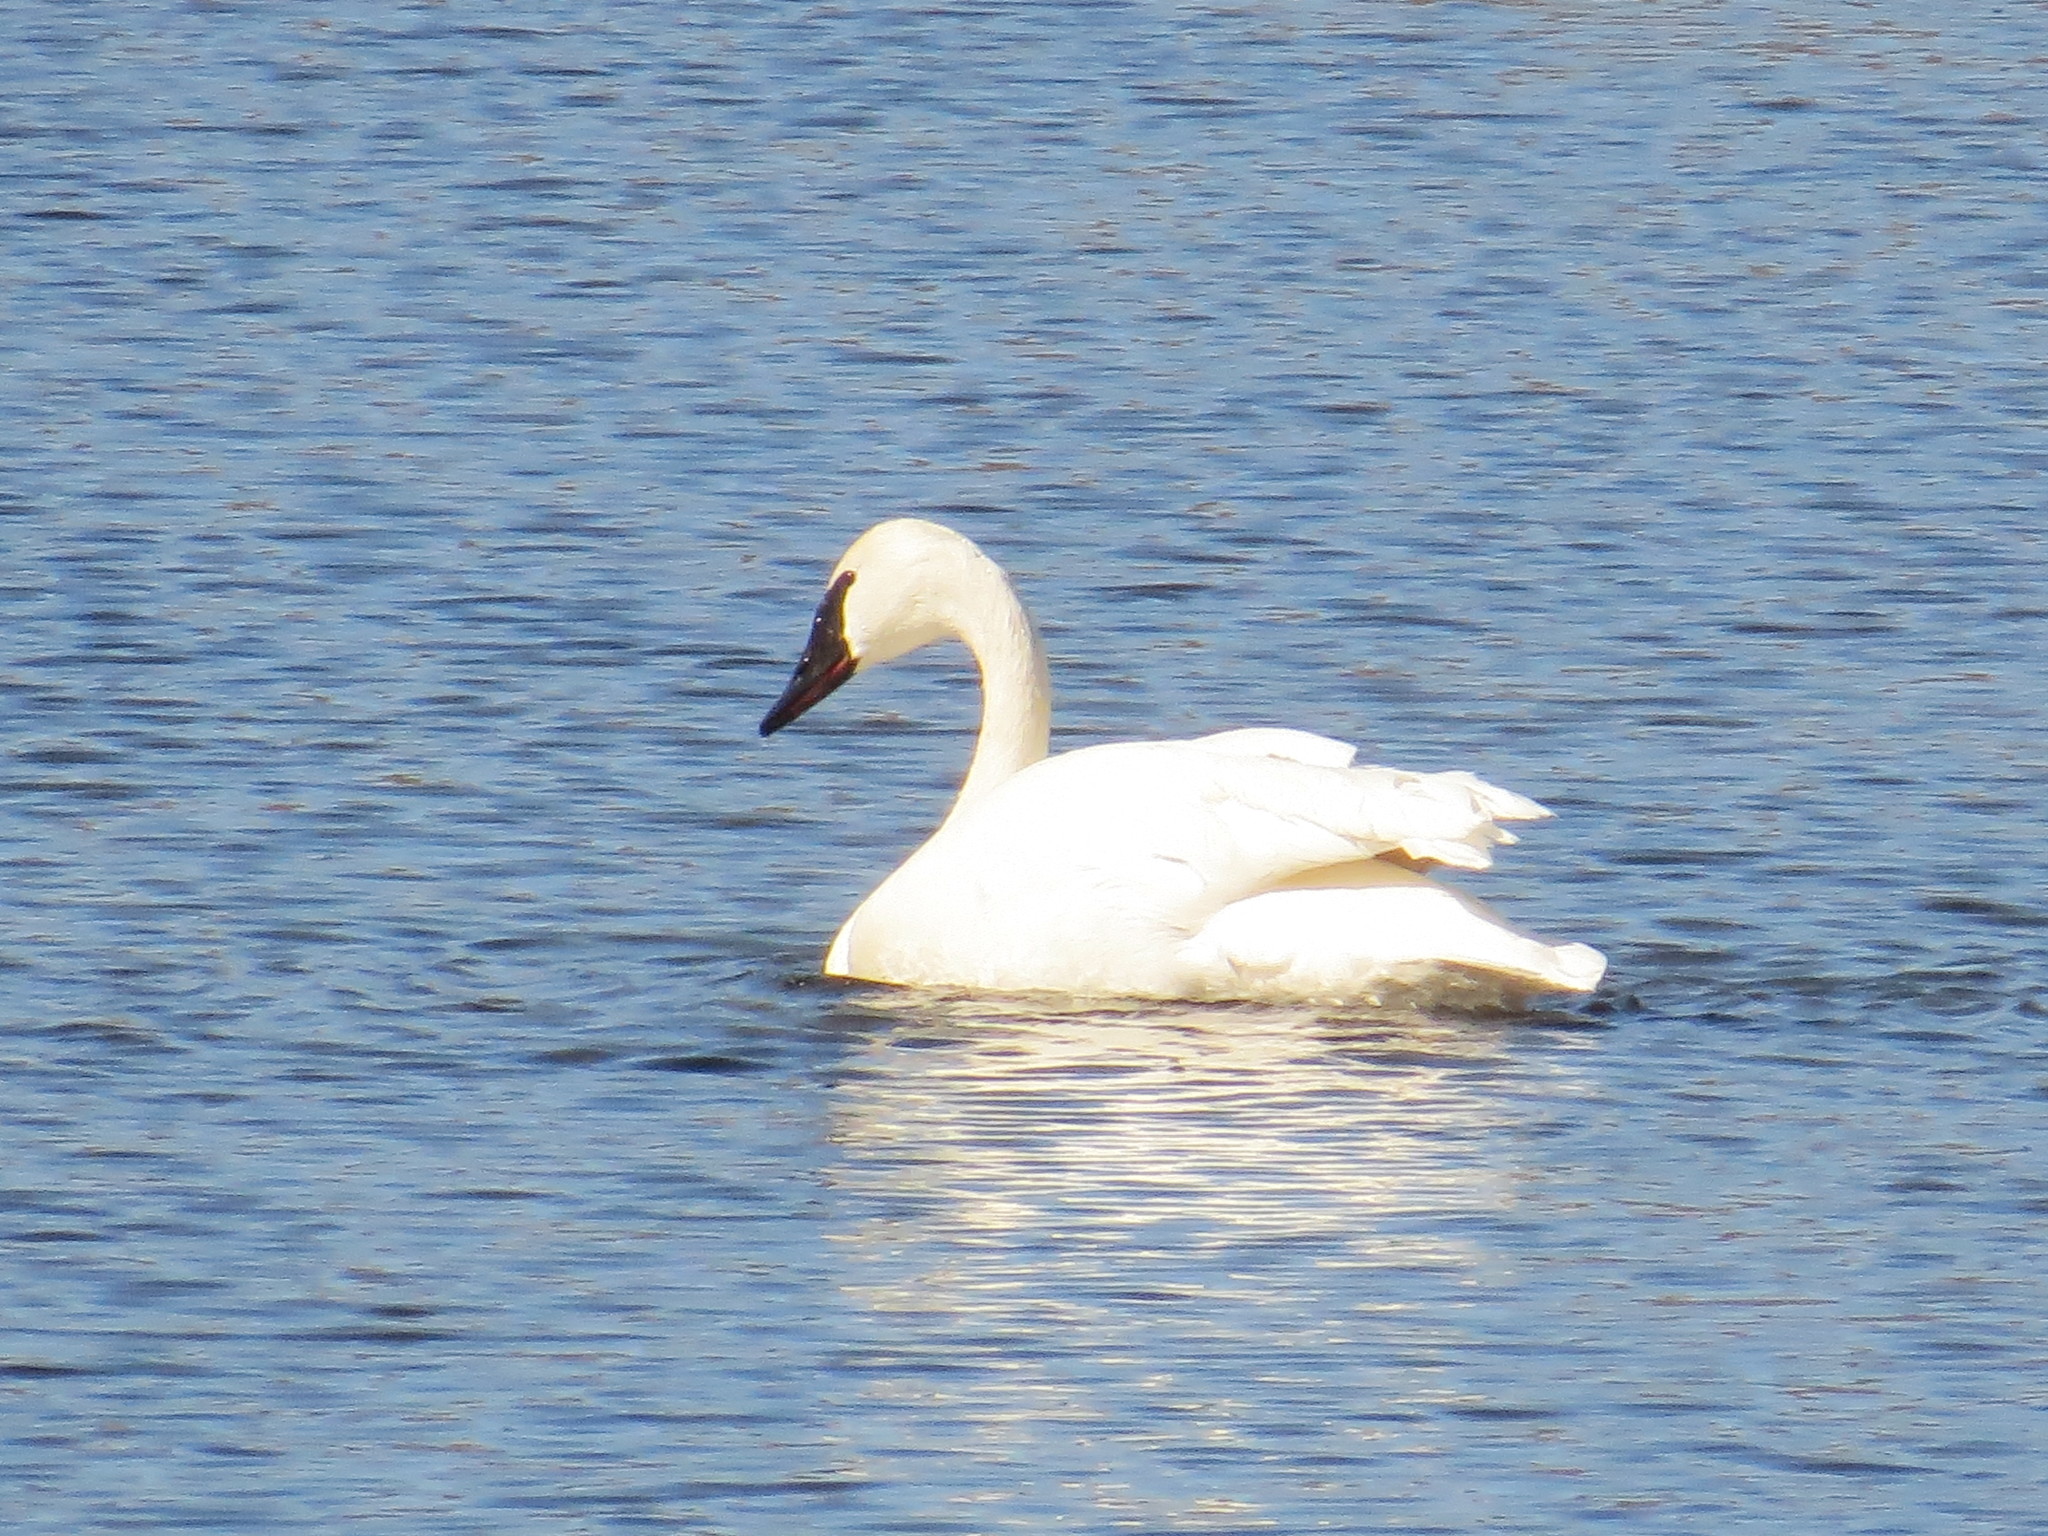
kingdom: Animalia
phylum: Chordata
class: Aves
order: Anseriformes
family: Anatidae
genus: Cygnus
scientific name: Cygnus buccinator
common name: Trumpeter swan
